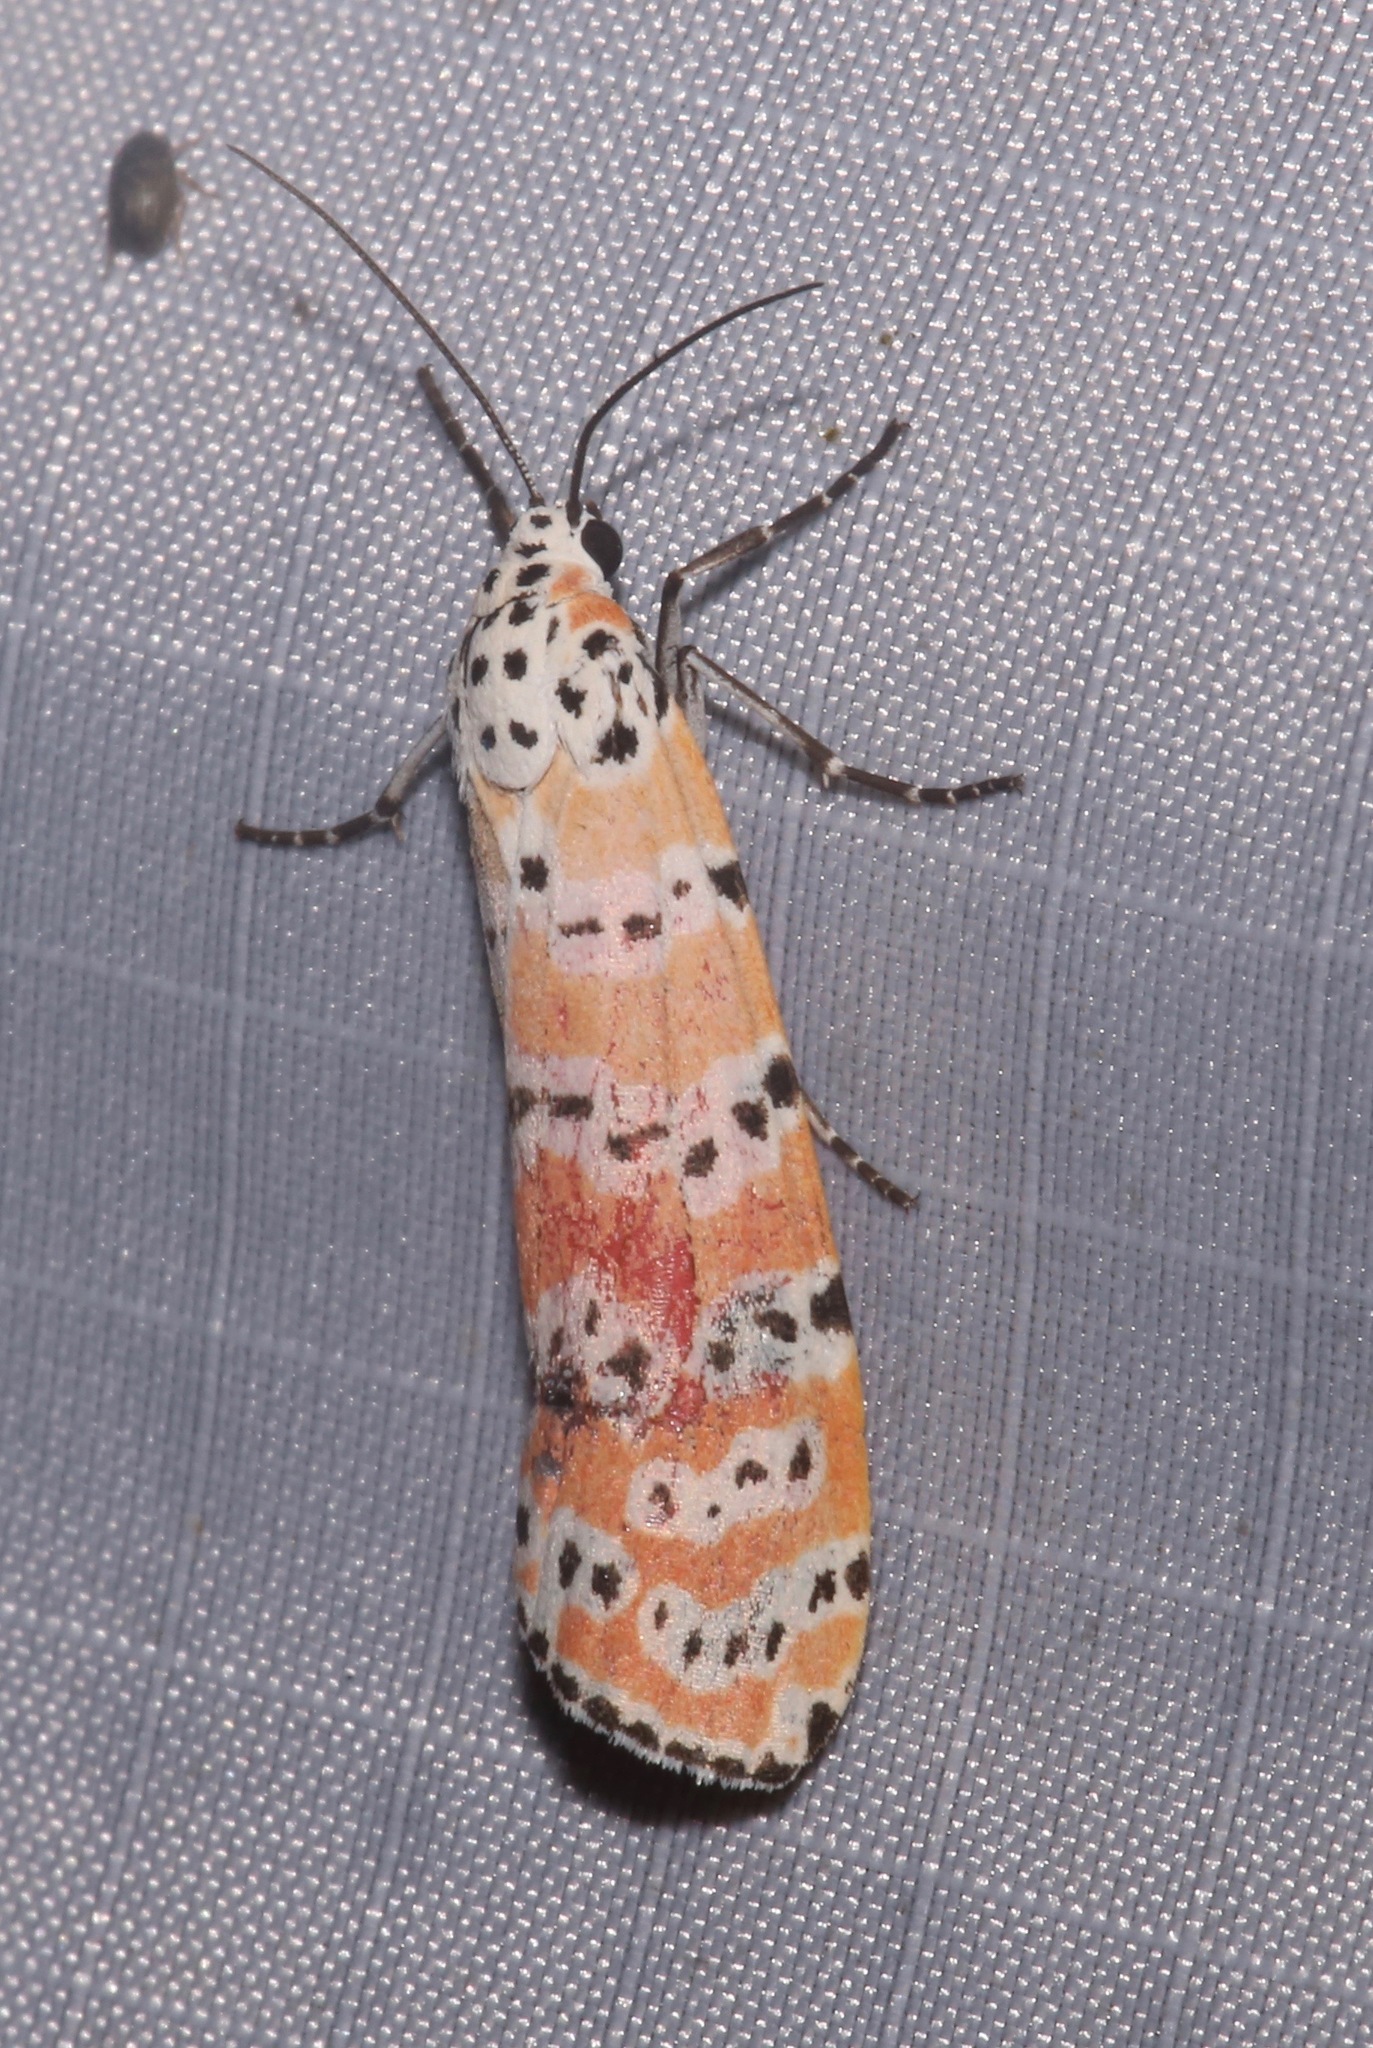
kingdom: Animalia
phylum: Arthropoda
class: Insecta
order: Lepidoptera
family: Erebidae
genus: Utetheisa
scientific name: Utetheisa ornatrix
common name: Beautiful utetheisa
